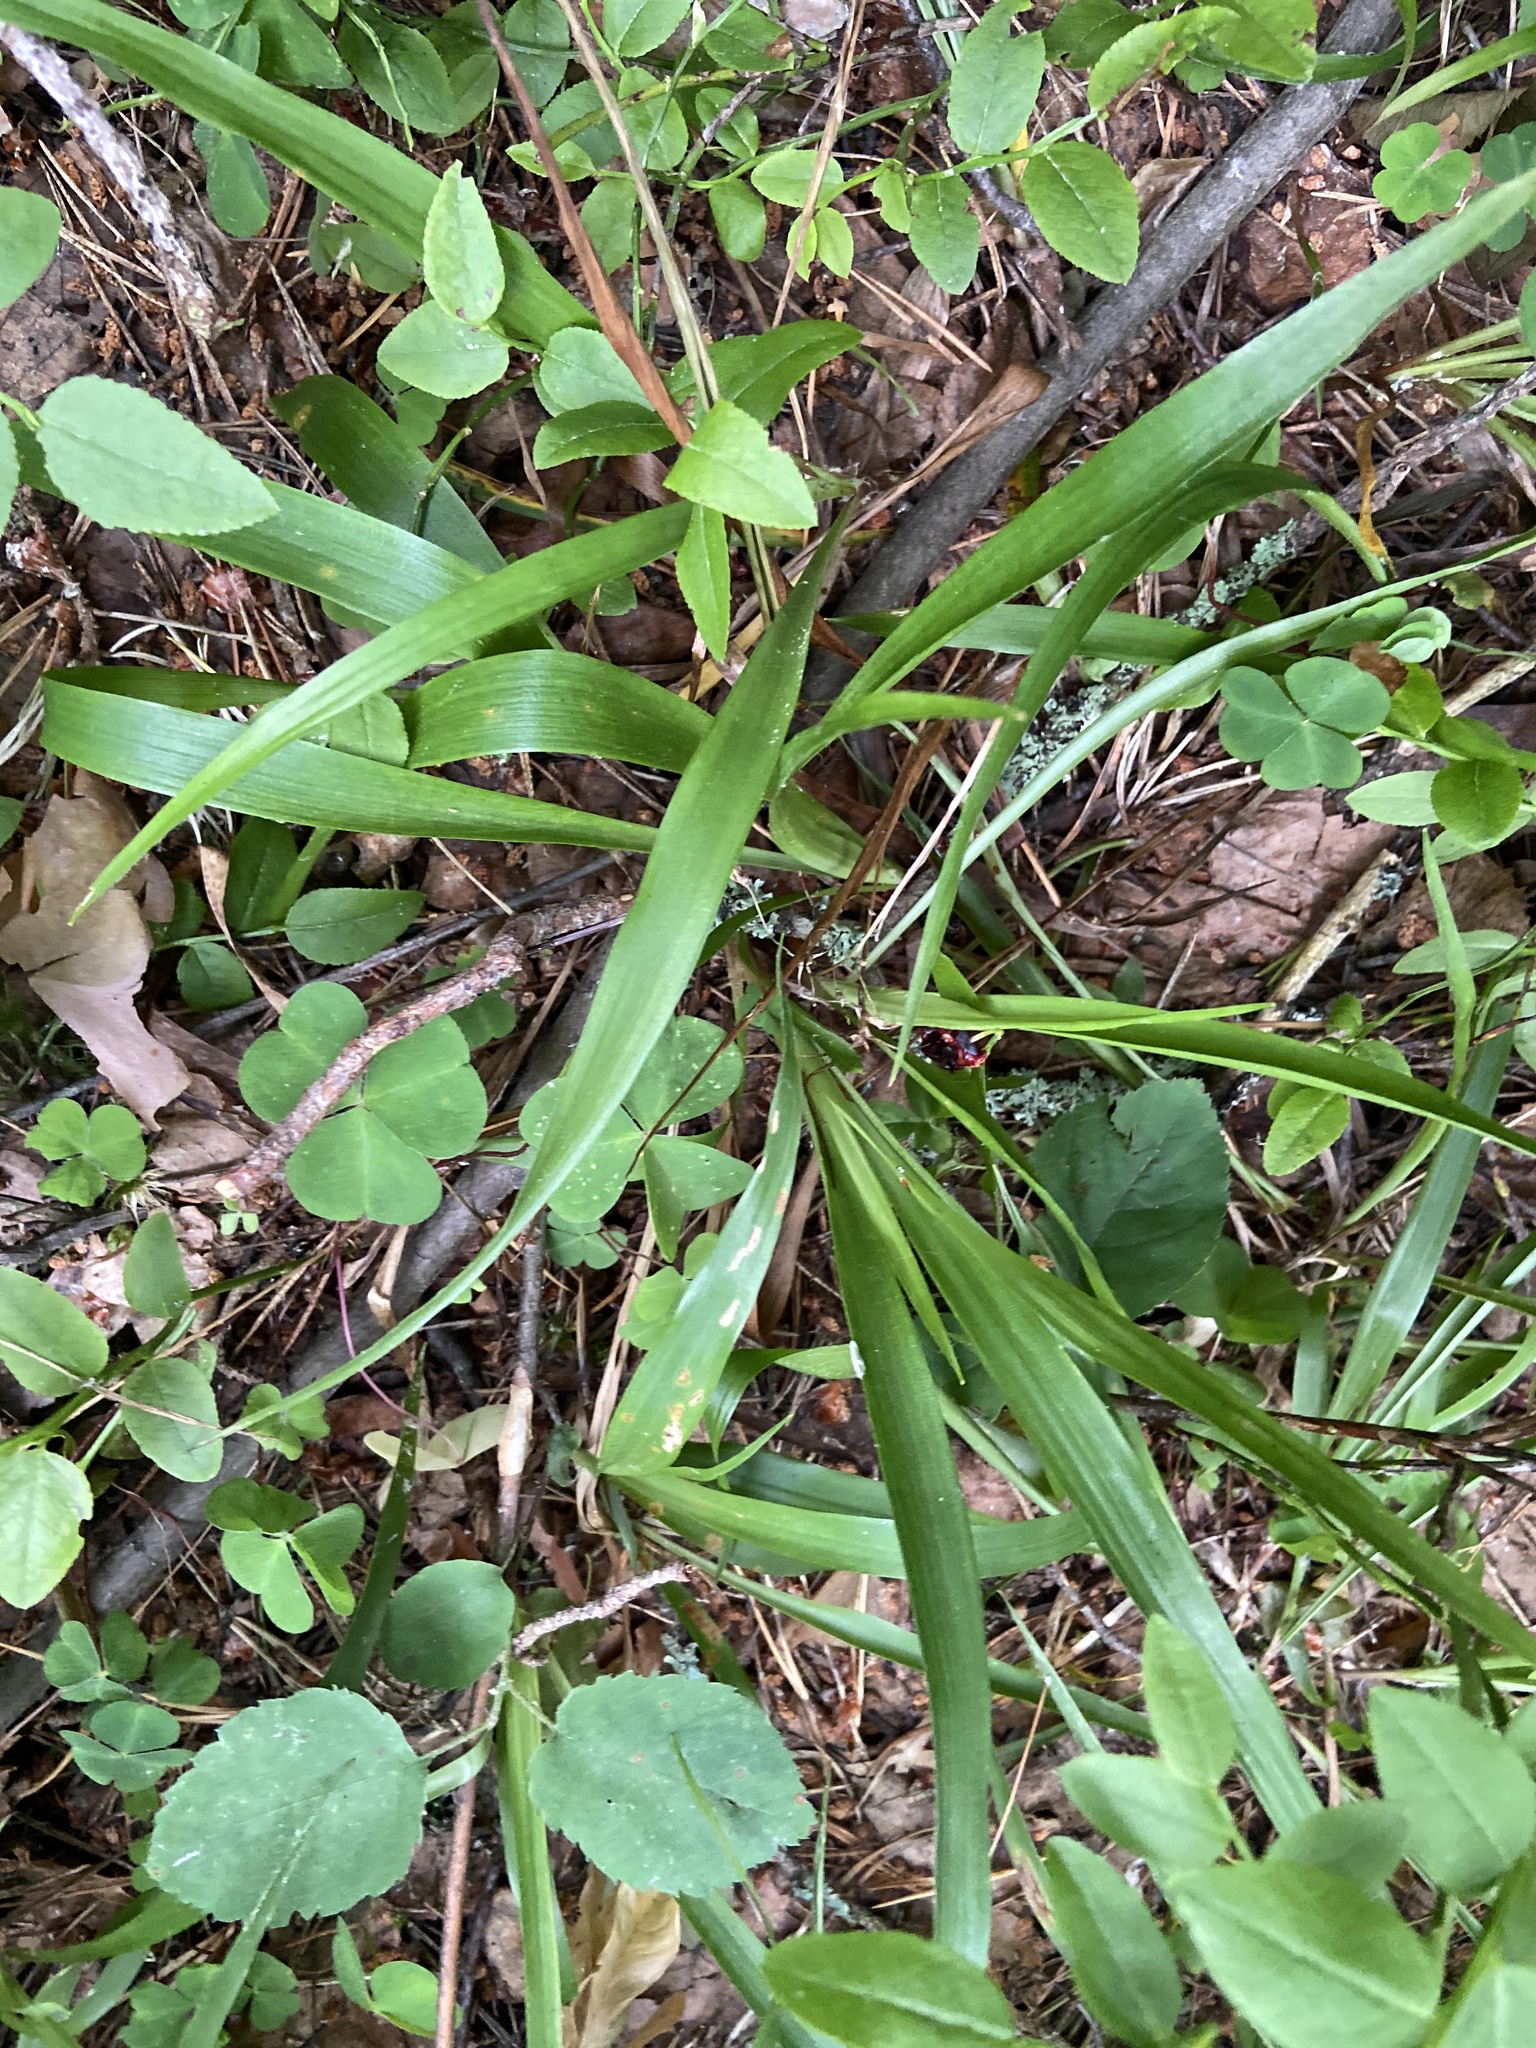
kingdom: Plantae
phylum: Tracheophyta
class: Liliopsida
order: Poales
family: Juncaceae
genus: Luzula
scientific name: Luzula pilosa
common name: Hairy wood-rush
